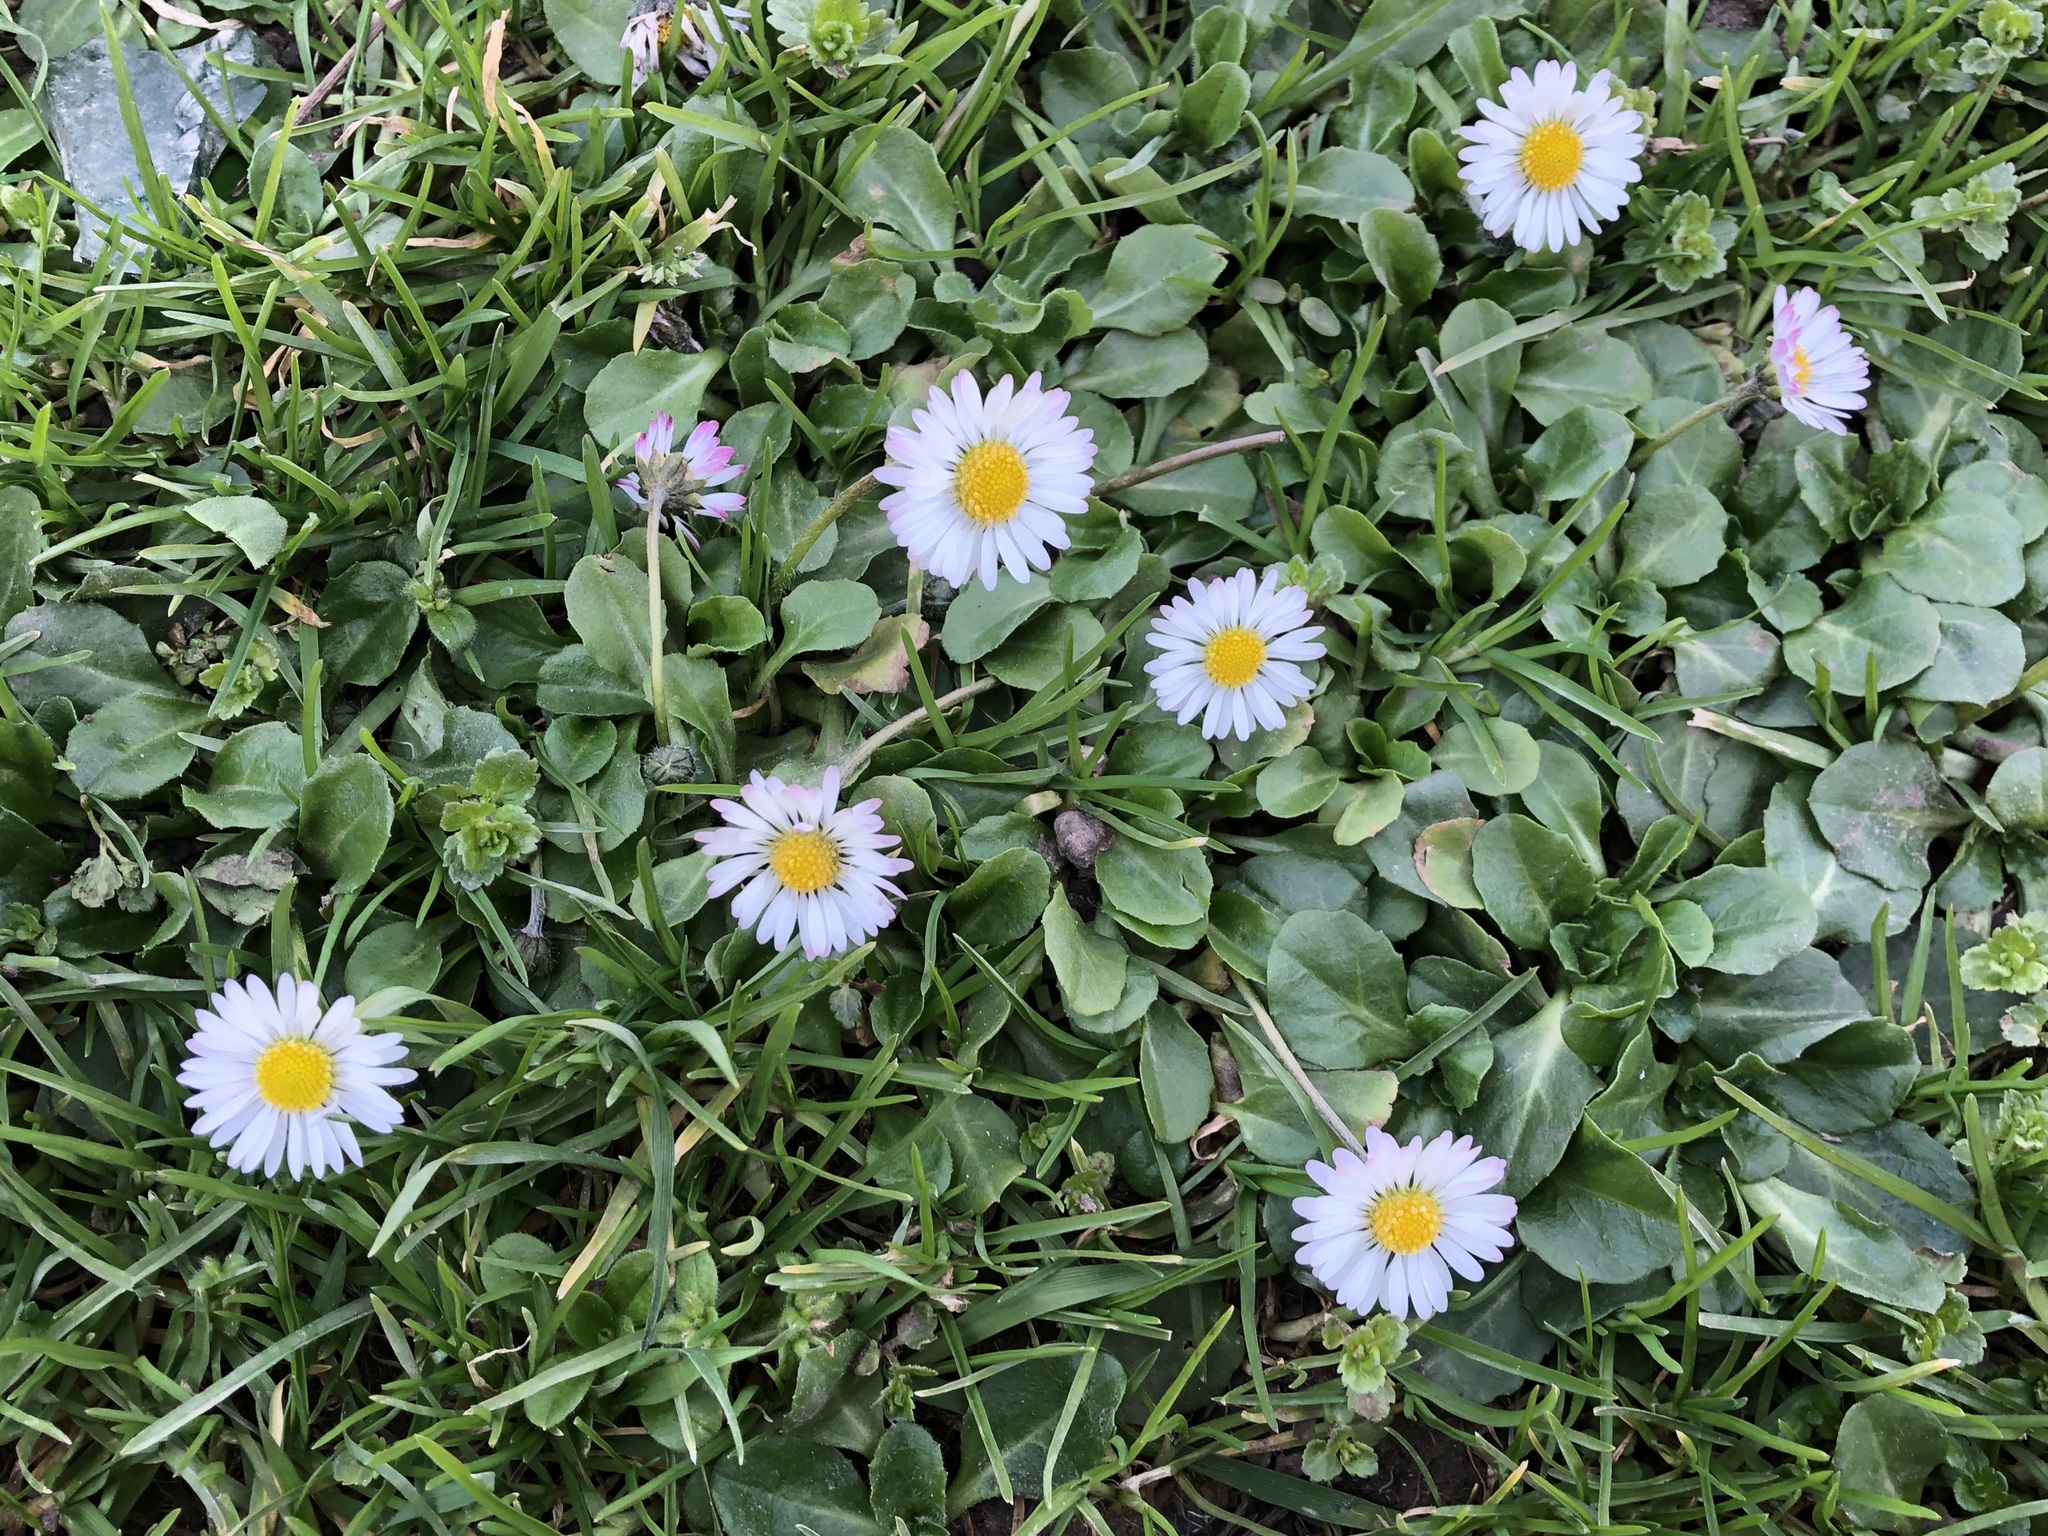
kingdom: Plantae
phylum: Tracheophyta
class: Magnoliopsida
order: Asterales
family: Asteraceae
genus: Bellis
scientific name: Bellis perennis
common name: Lawndaisy
